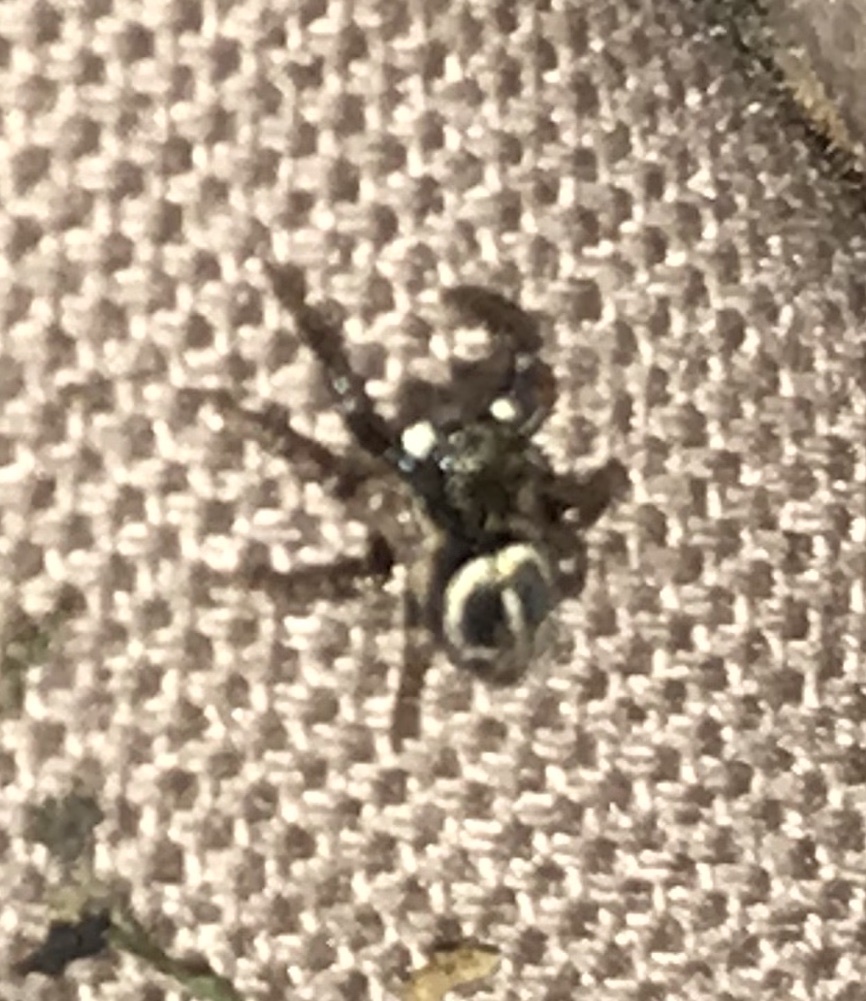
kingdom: Animalia
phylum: Arthropoda
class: Arachnida
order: Araneae
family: Salticidae
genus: Anasaitis
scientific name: Anasaitis canosa
